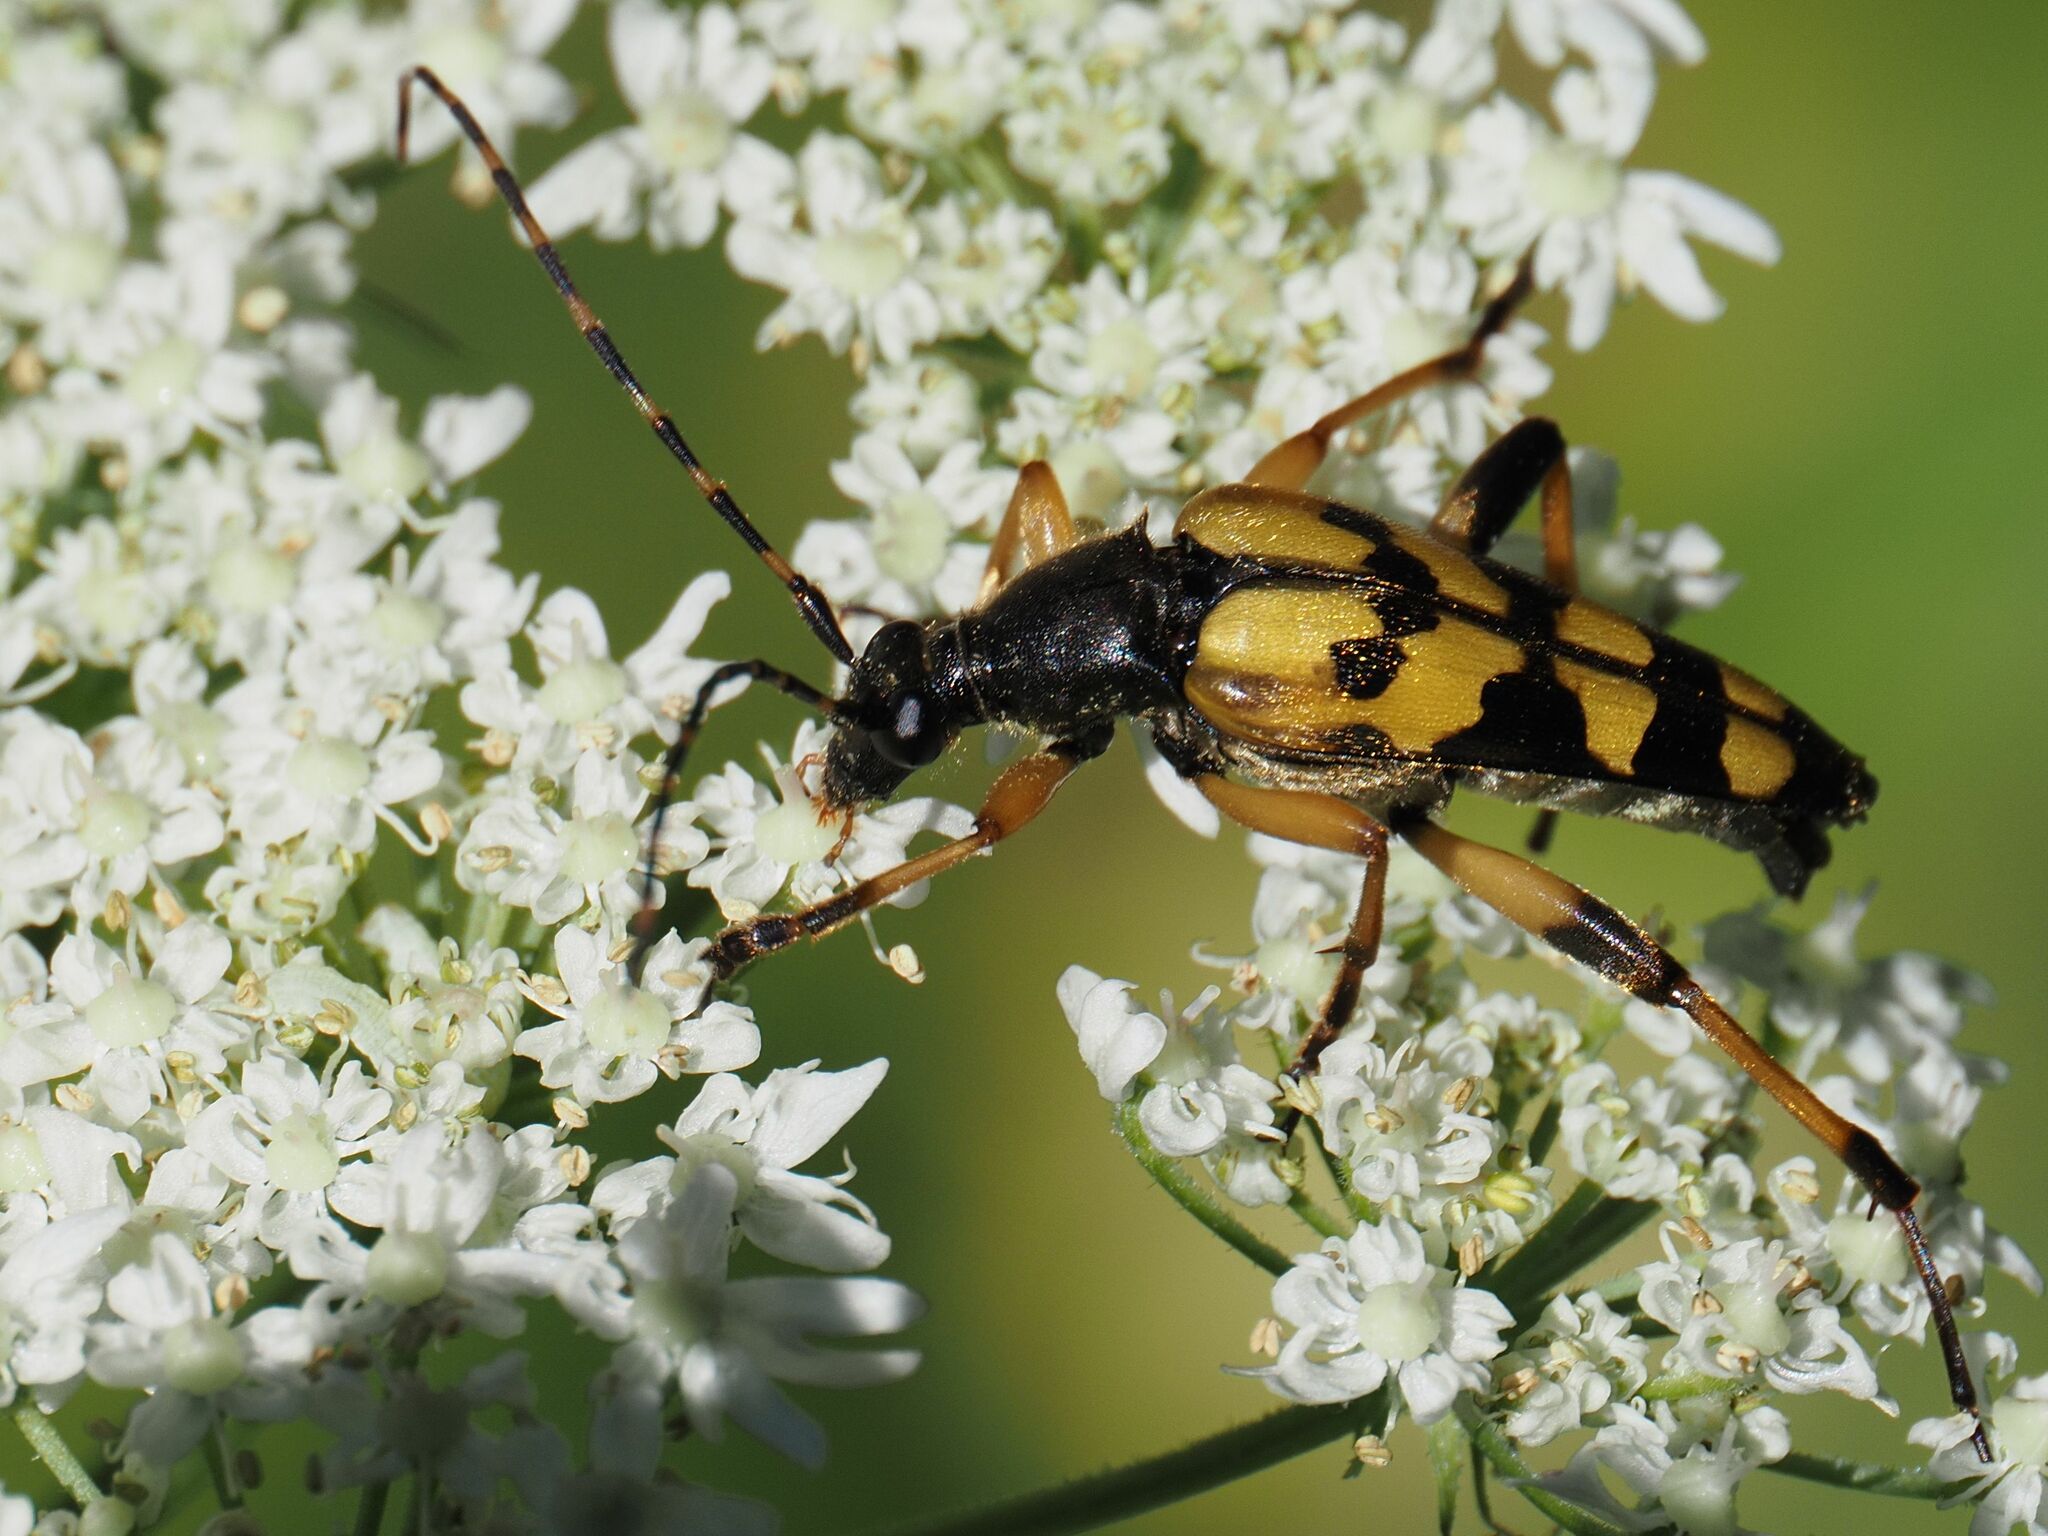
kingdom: Animalia
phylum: Arthropoda
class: Insecta
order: Coleoptera
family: Cerambycidae
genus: Rutpela
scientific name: Rutpela maculata
